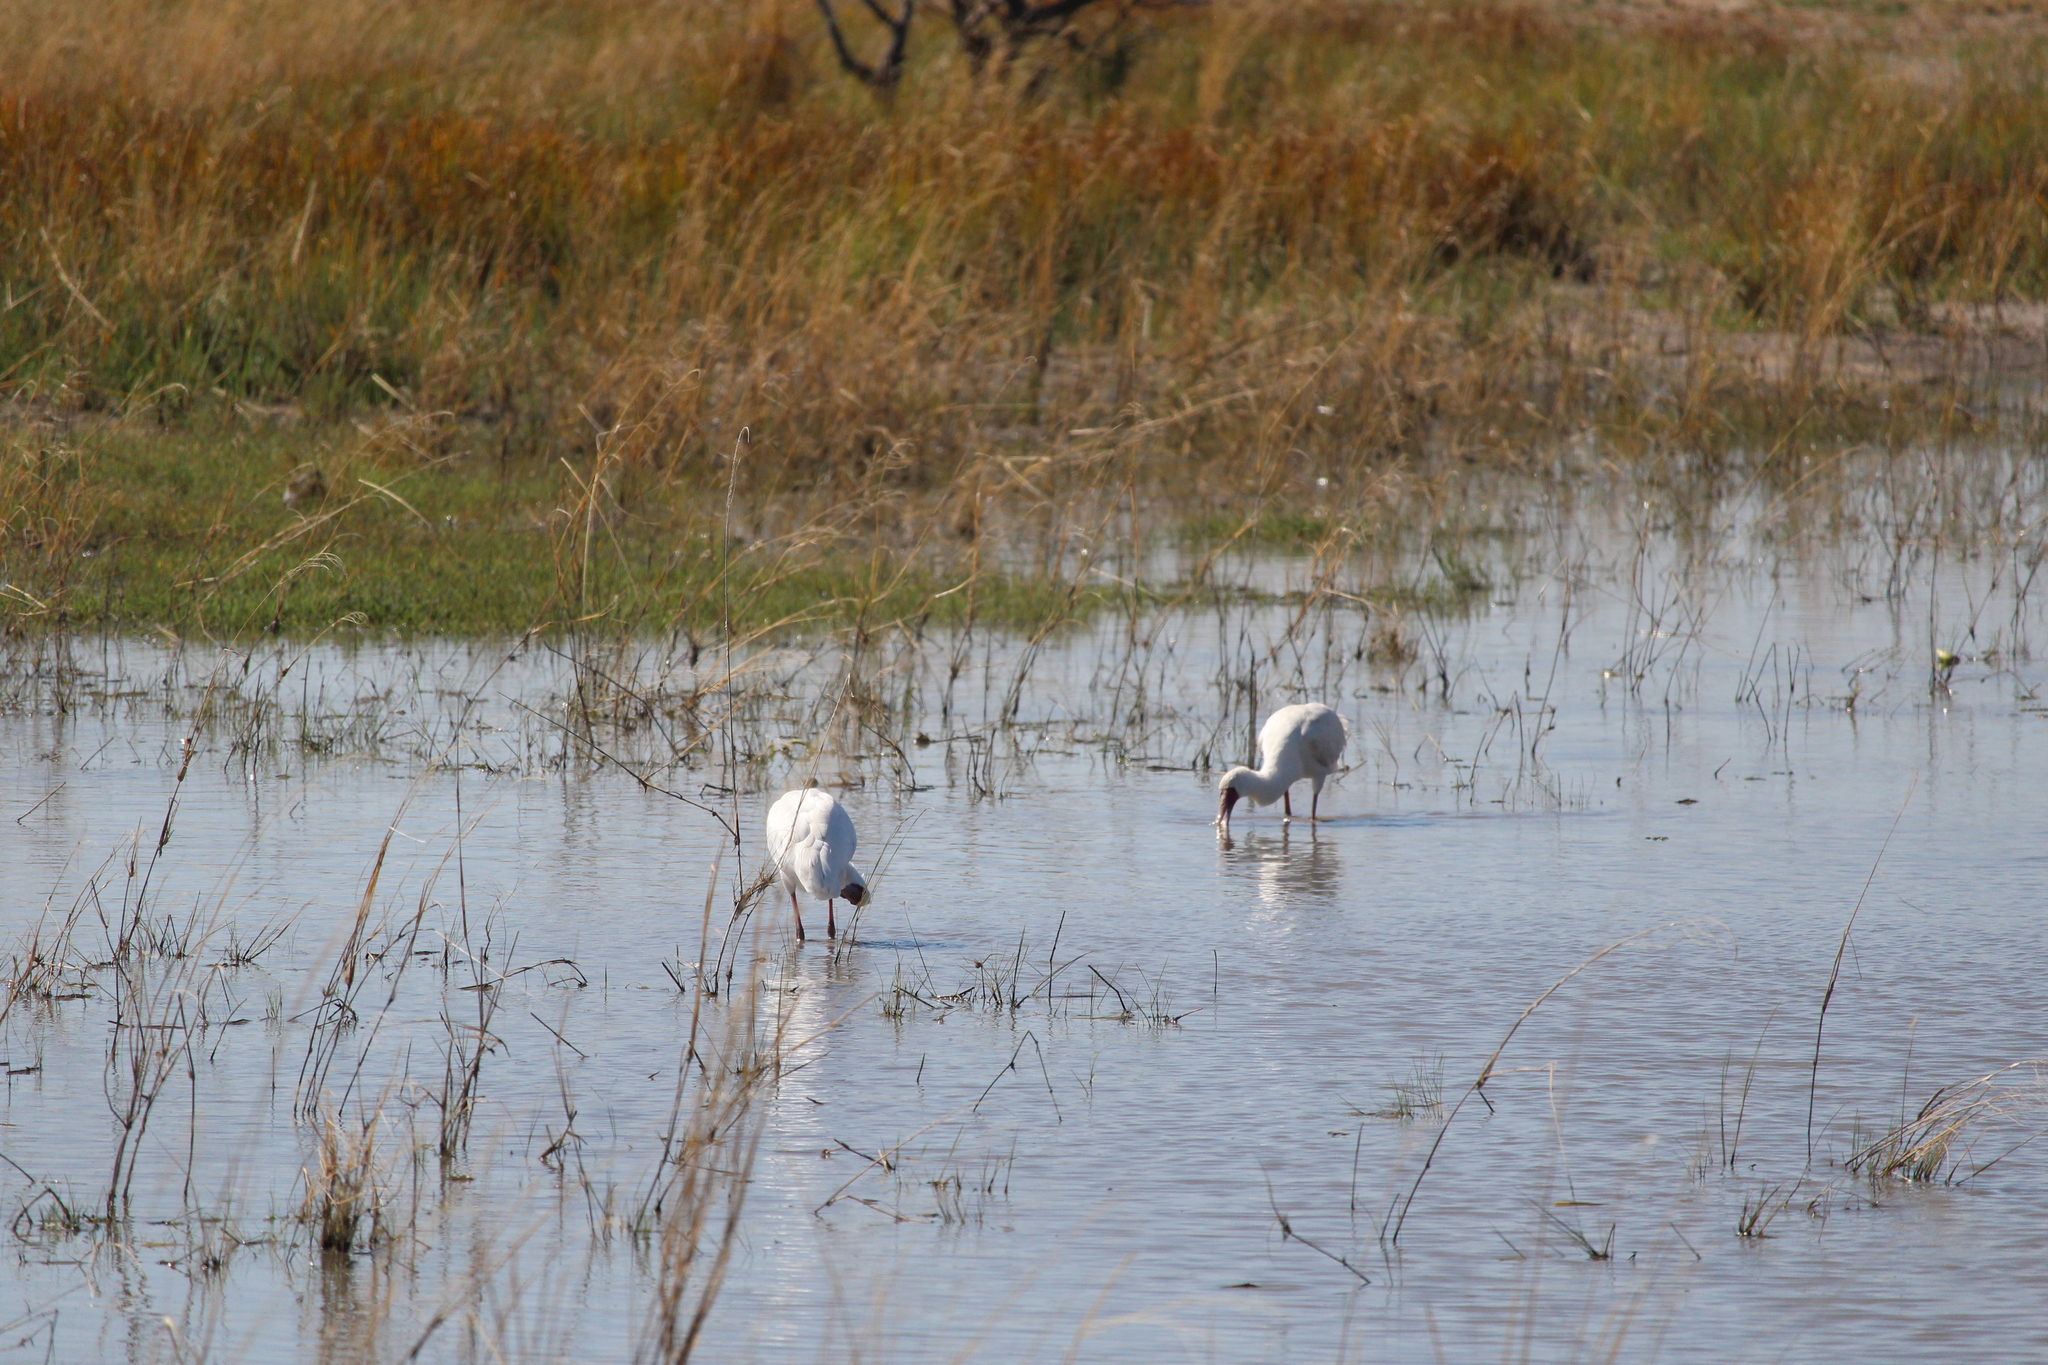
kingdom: Animalia
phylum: Chordata
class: Aves
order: Pelecaniformes
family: Threskiornithidae
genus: Platalea
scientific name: Platalea alba
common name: African spoonbill
